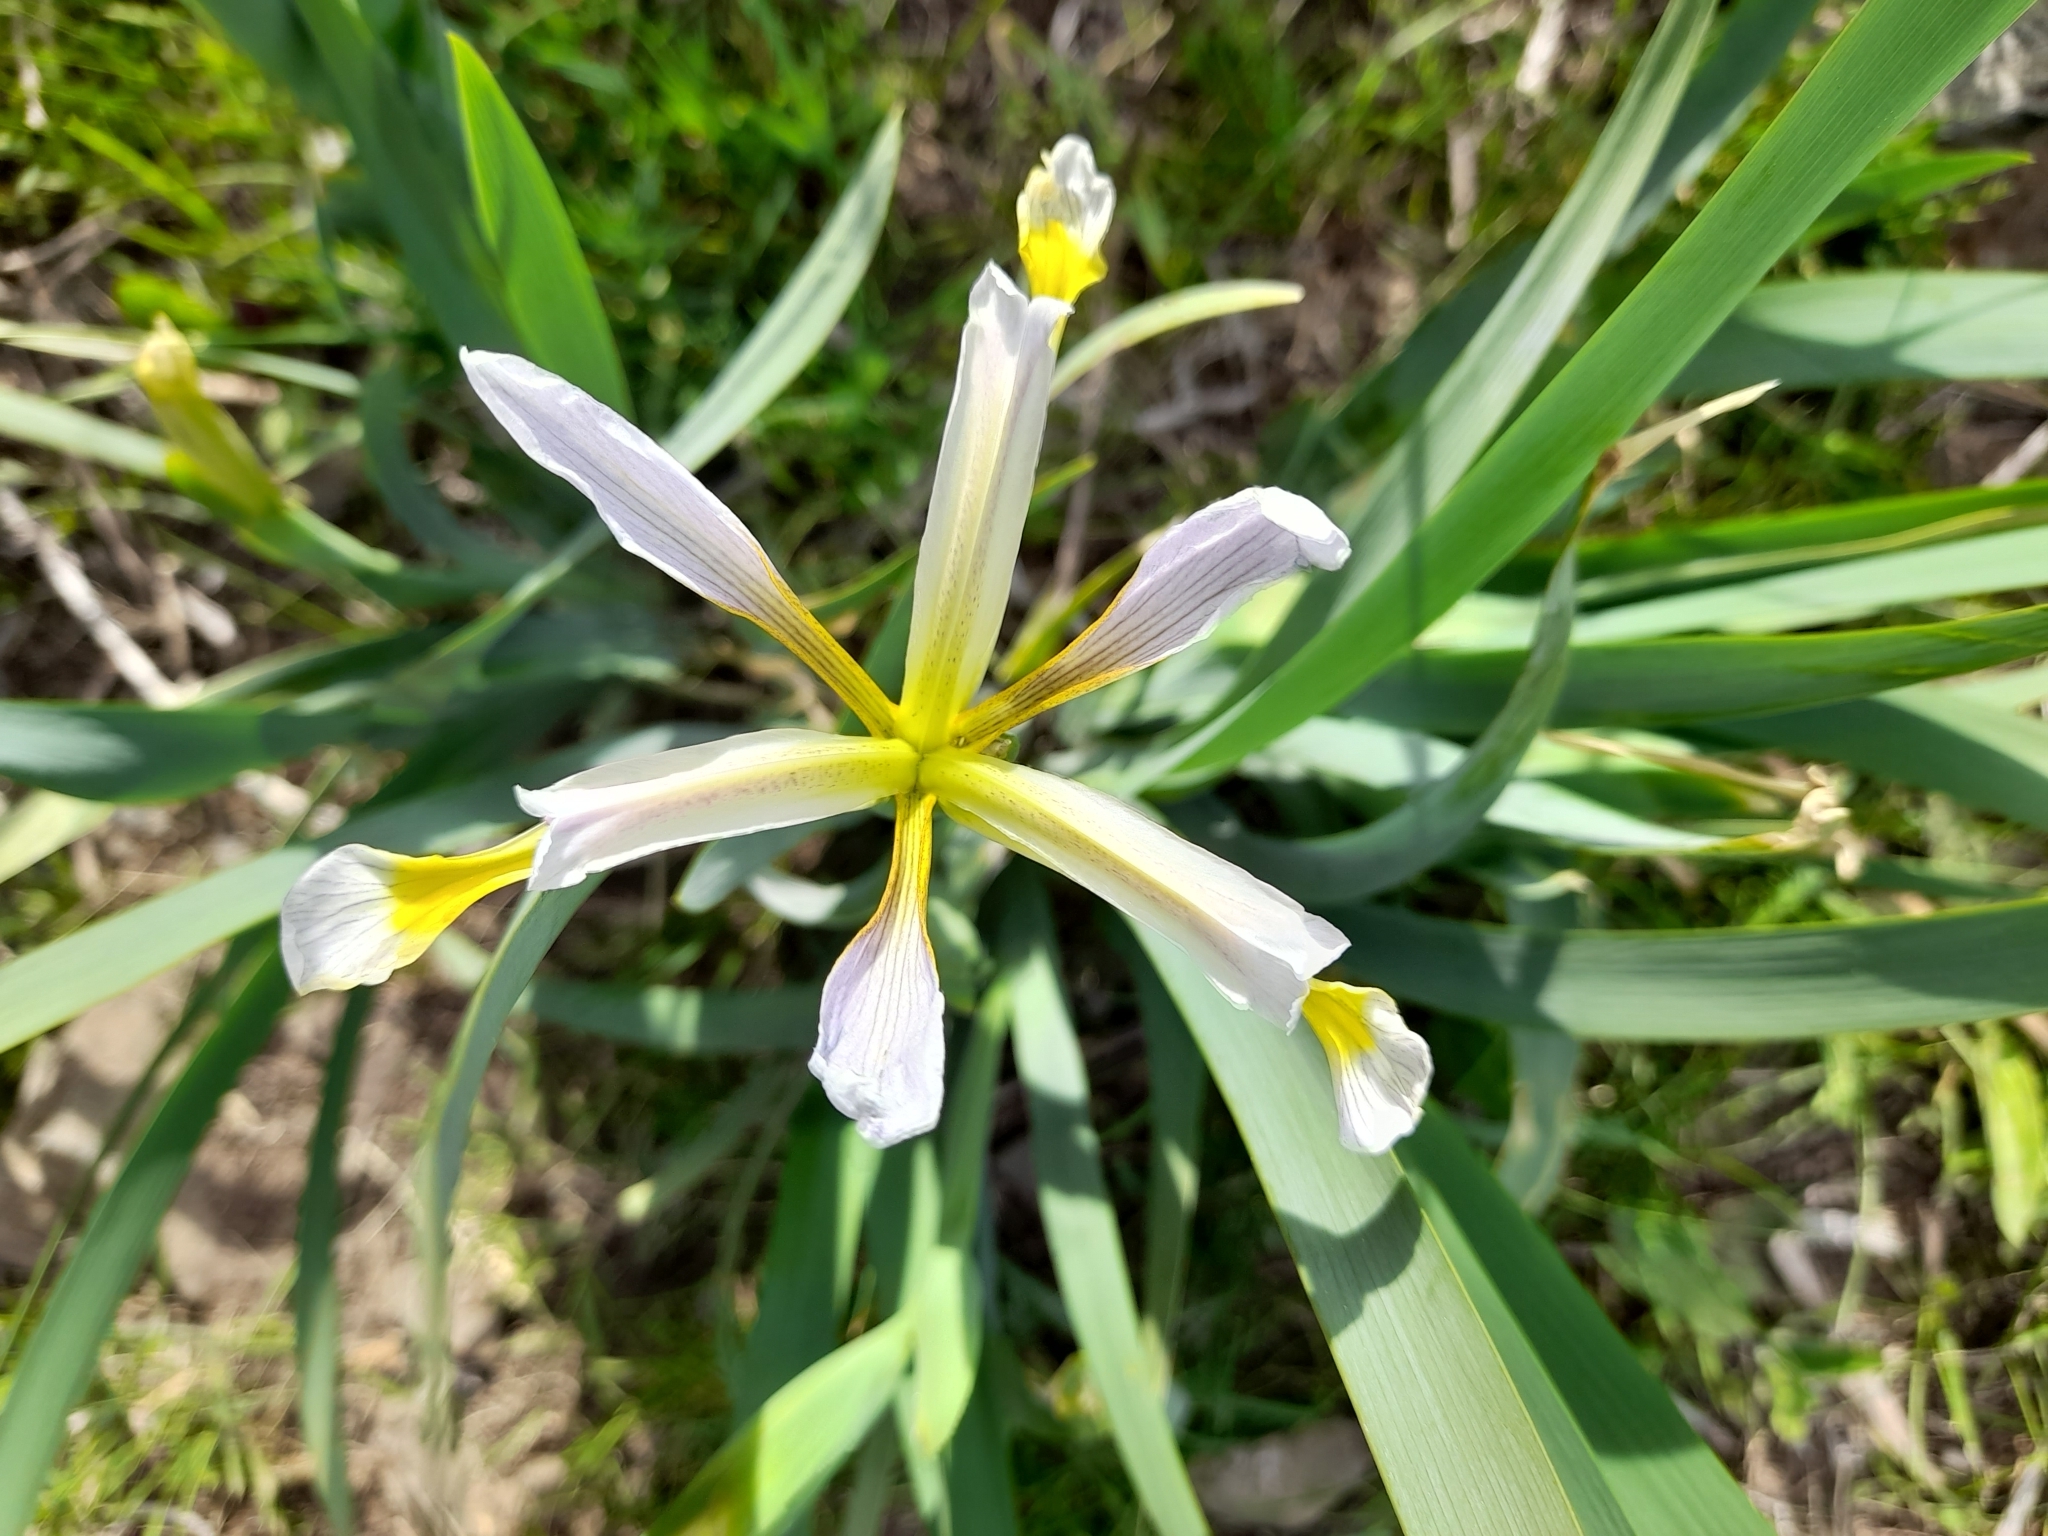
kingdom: Plantae
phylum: Tracheophyta
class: Liliopsida
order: Asparagales
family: Iridaceae
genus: Iris
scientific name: Iris halophila
